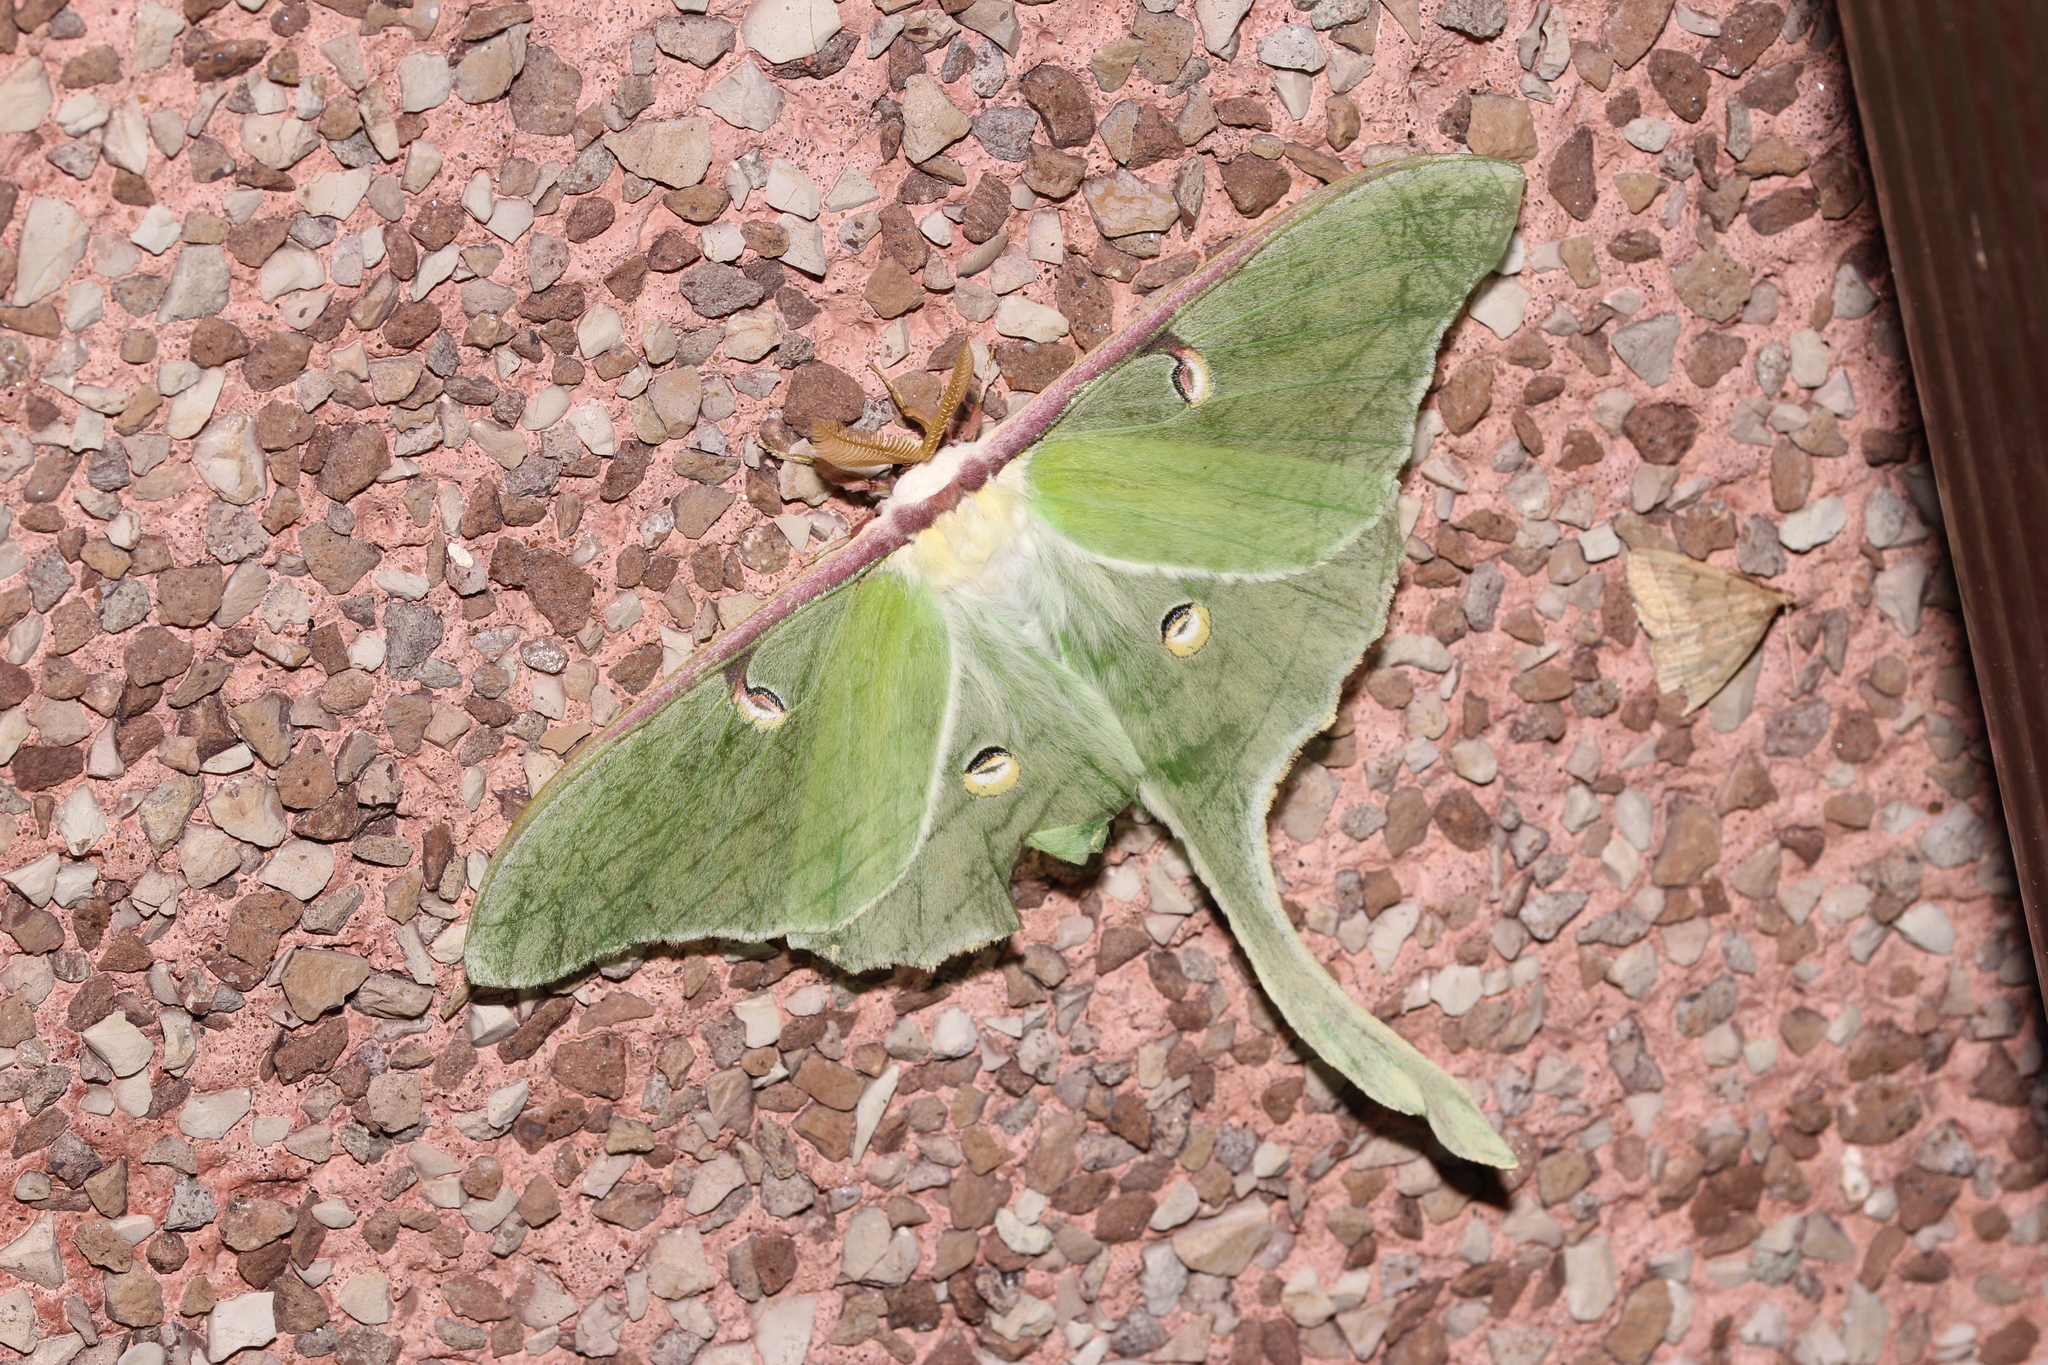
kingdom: Animalia
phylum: Arthropoda
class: Insecta
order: Lepidoptera
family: Saturniidae
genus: Actias
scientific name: Actias luna
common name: Luna moth
